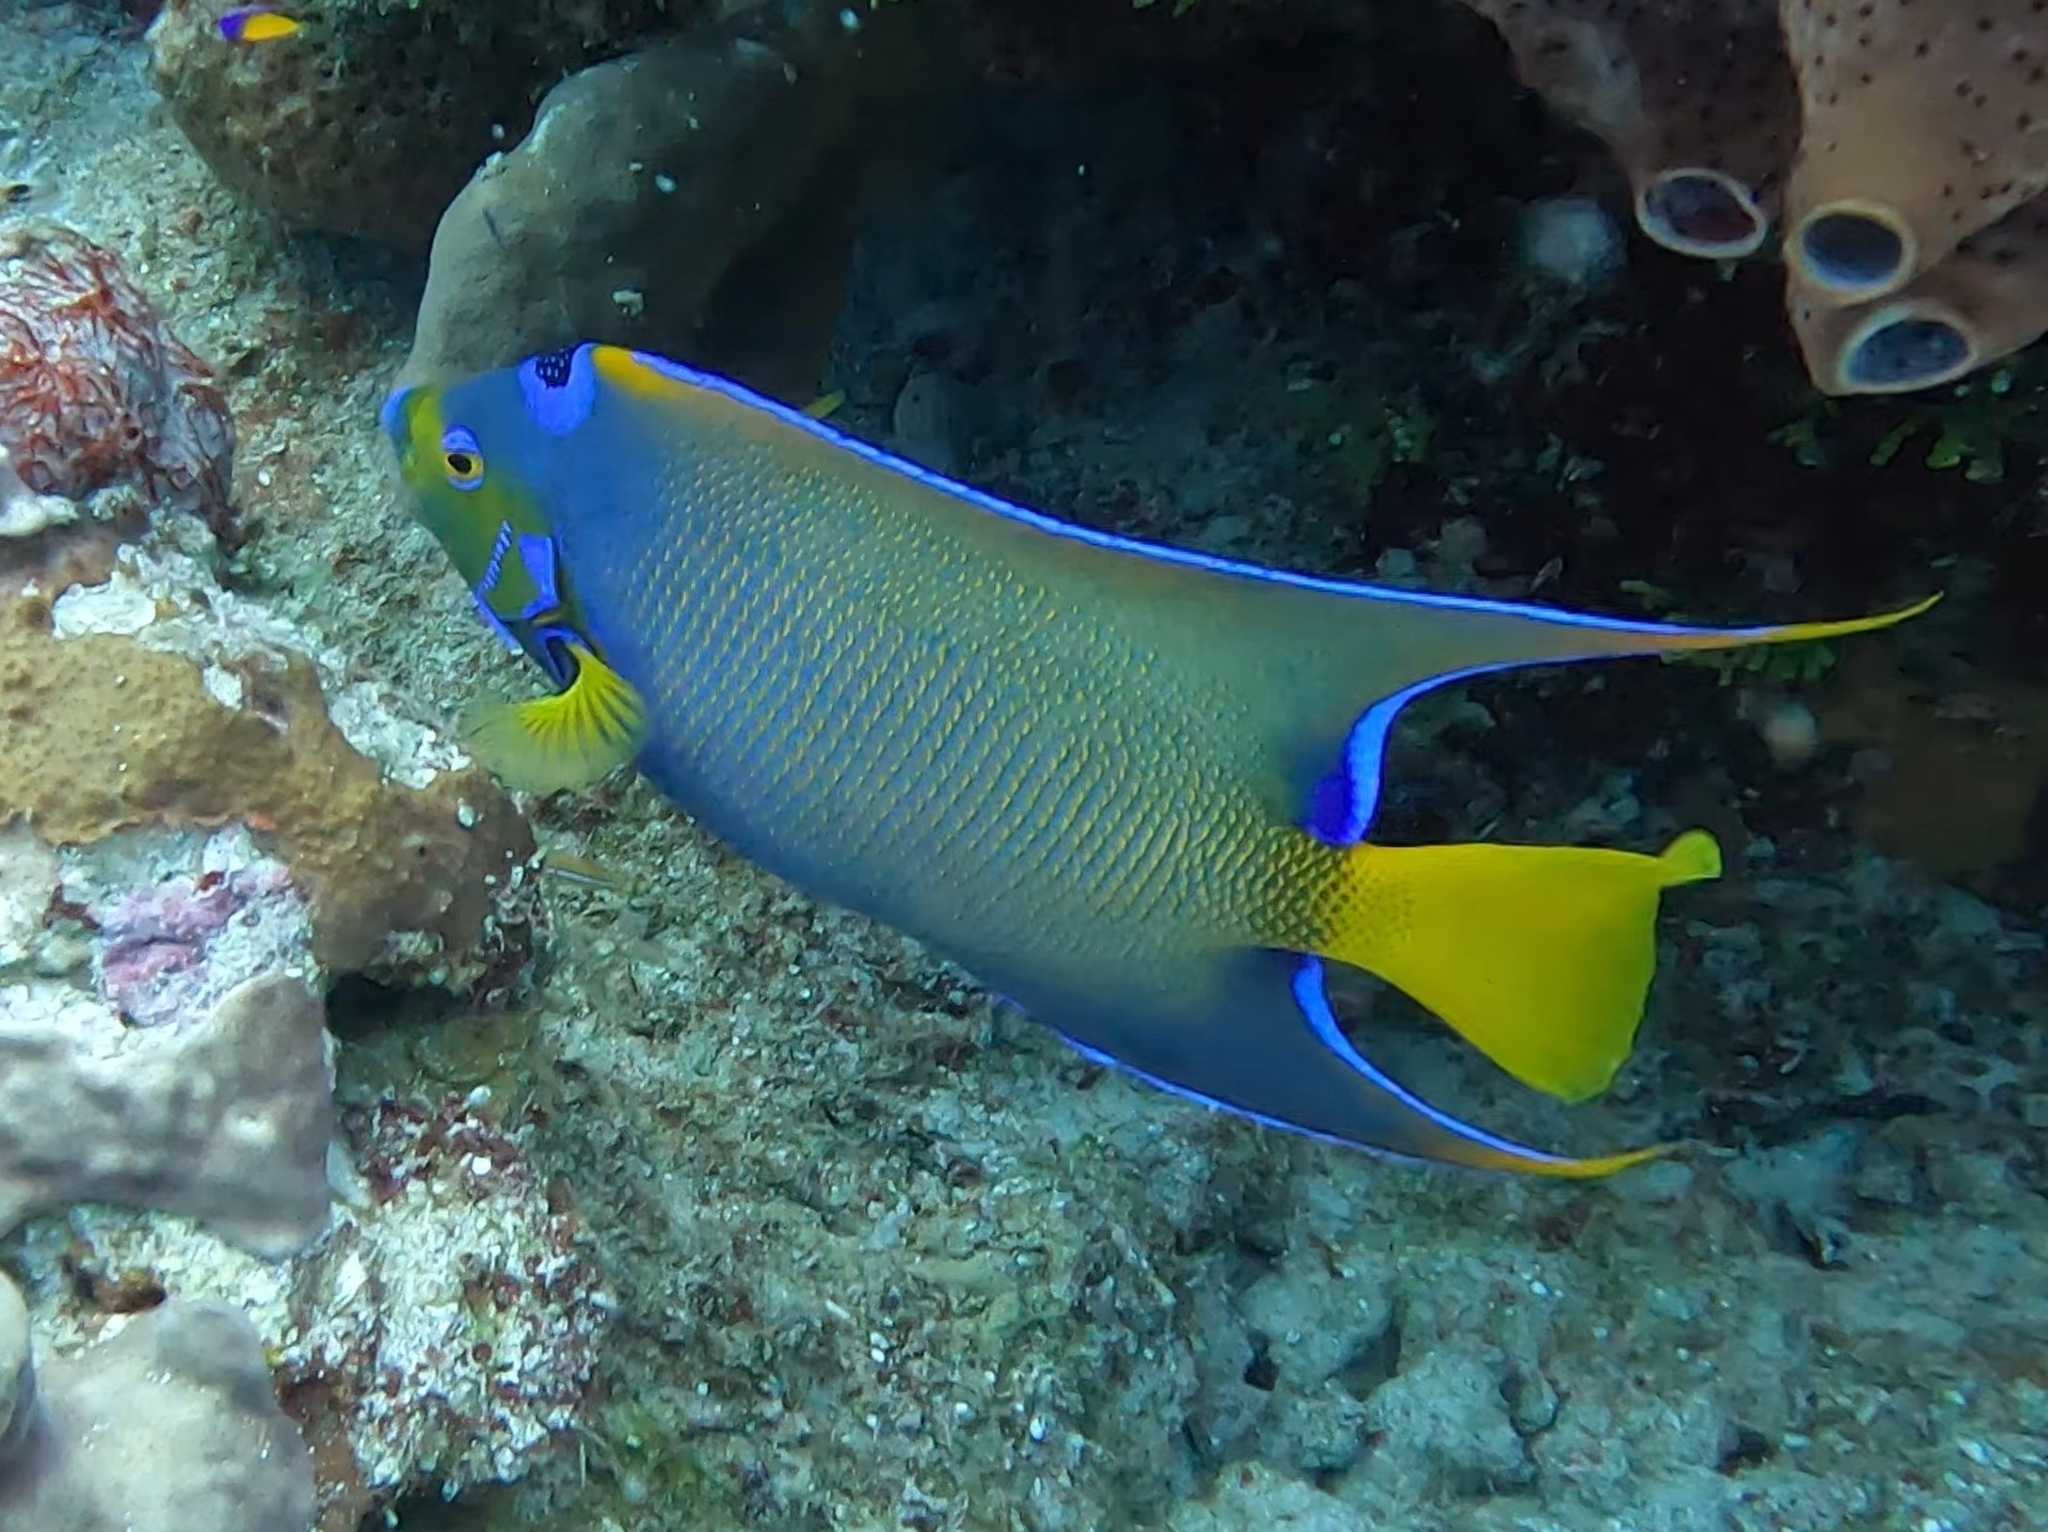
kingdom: Animalia
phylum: Chordata
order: Perciformes
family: Pomacanthidae
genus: Holacanthus
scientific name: Holacanthus ciliaris
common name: Queen angelfish
